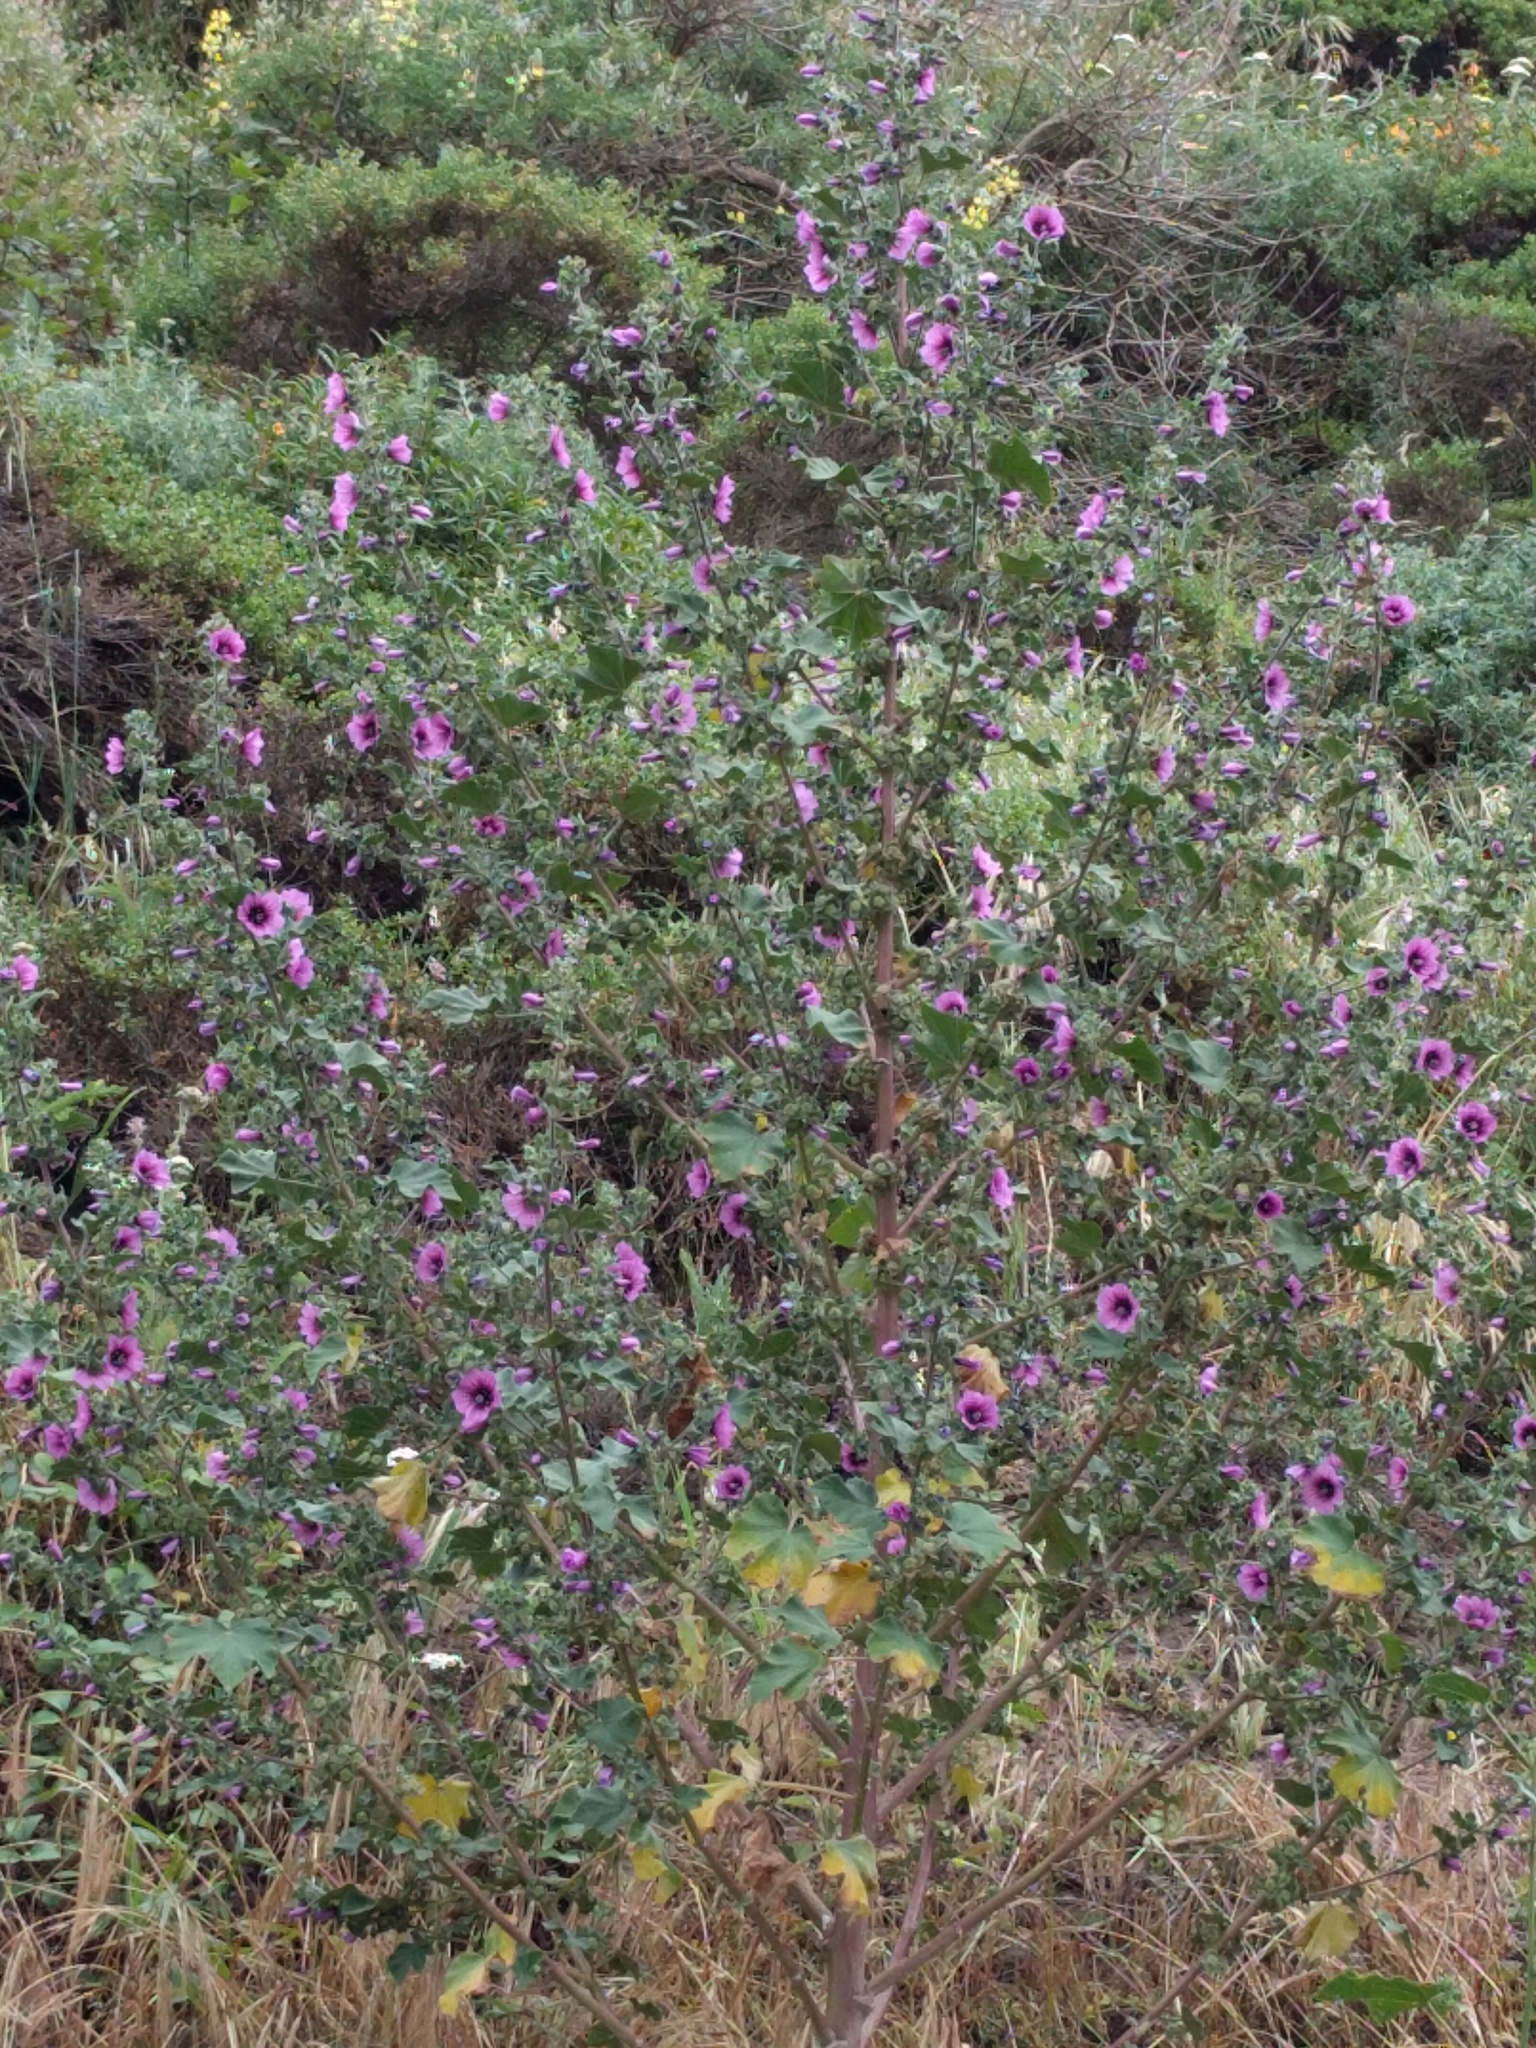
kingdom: Plantae
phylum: Tracheophyta
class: Magnoliopsida
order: Malvales
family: Malvaceae
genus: Malva
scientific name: Malva arborea
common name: Tree mallow
